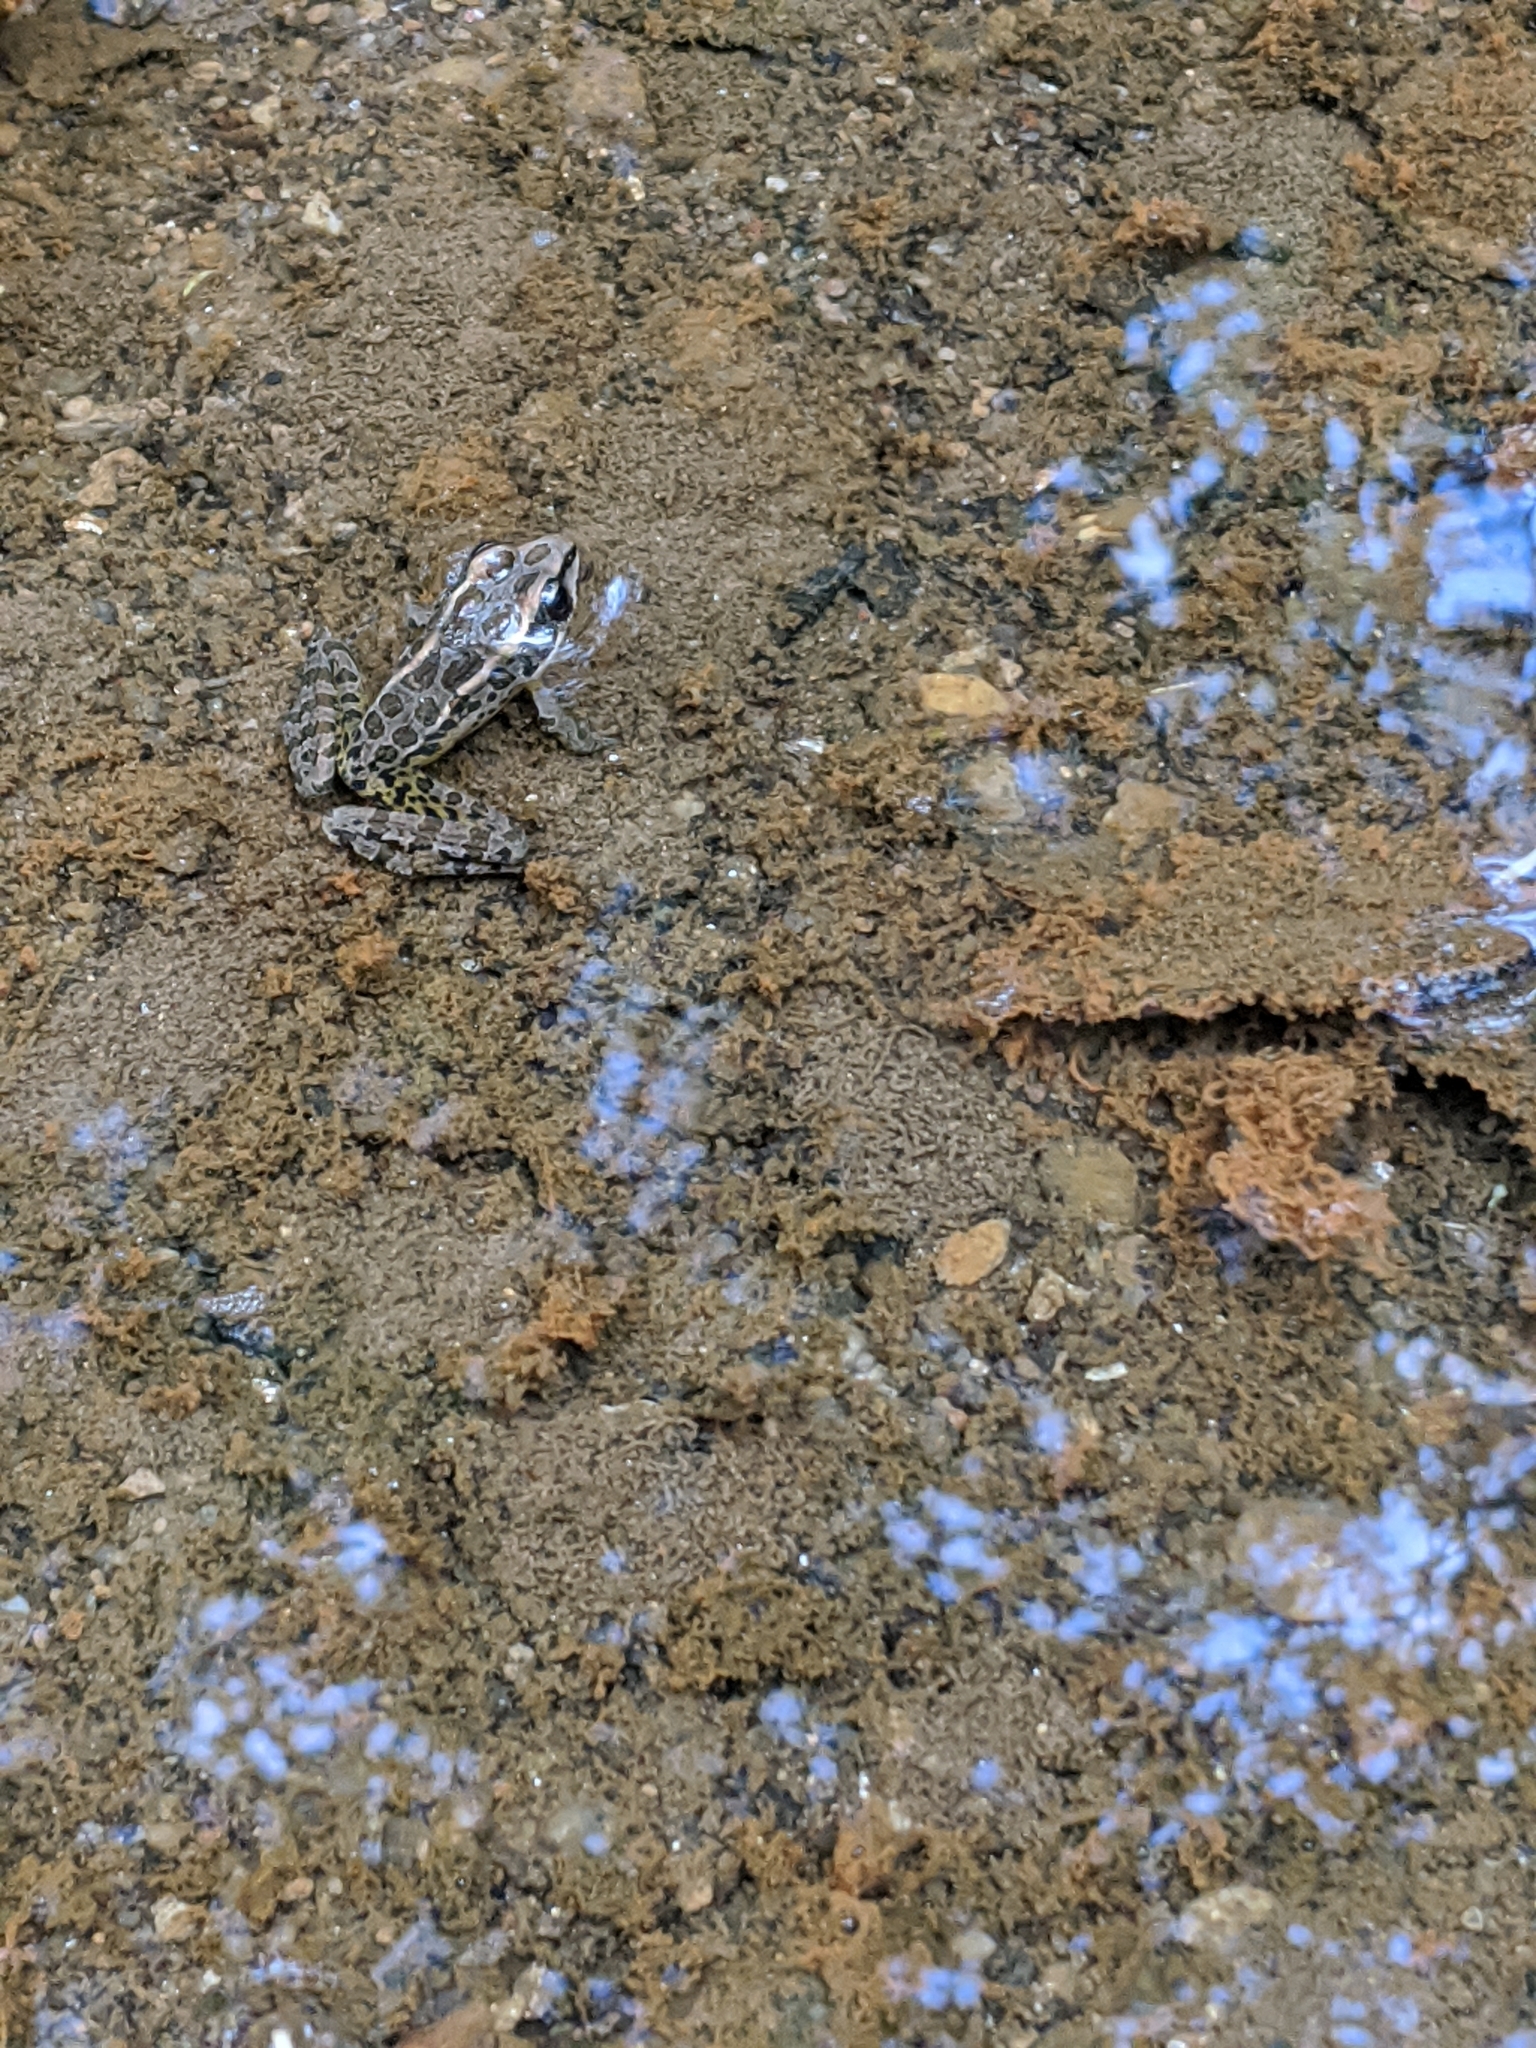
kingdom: Animalia
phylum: Chordata
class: Amphibia
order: Anura
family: Ranidae
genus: Lithobates
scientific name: Lithobates palustris
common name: Pickerel frog
